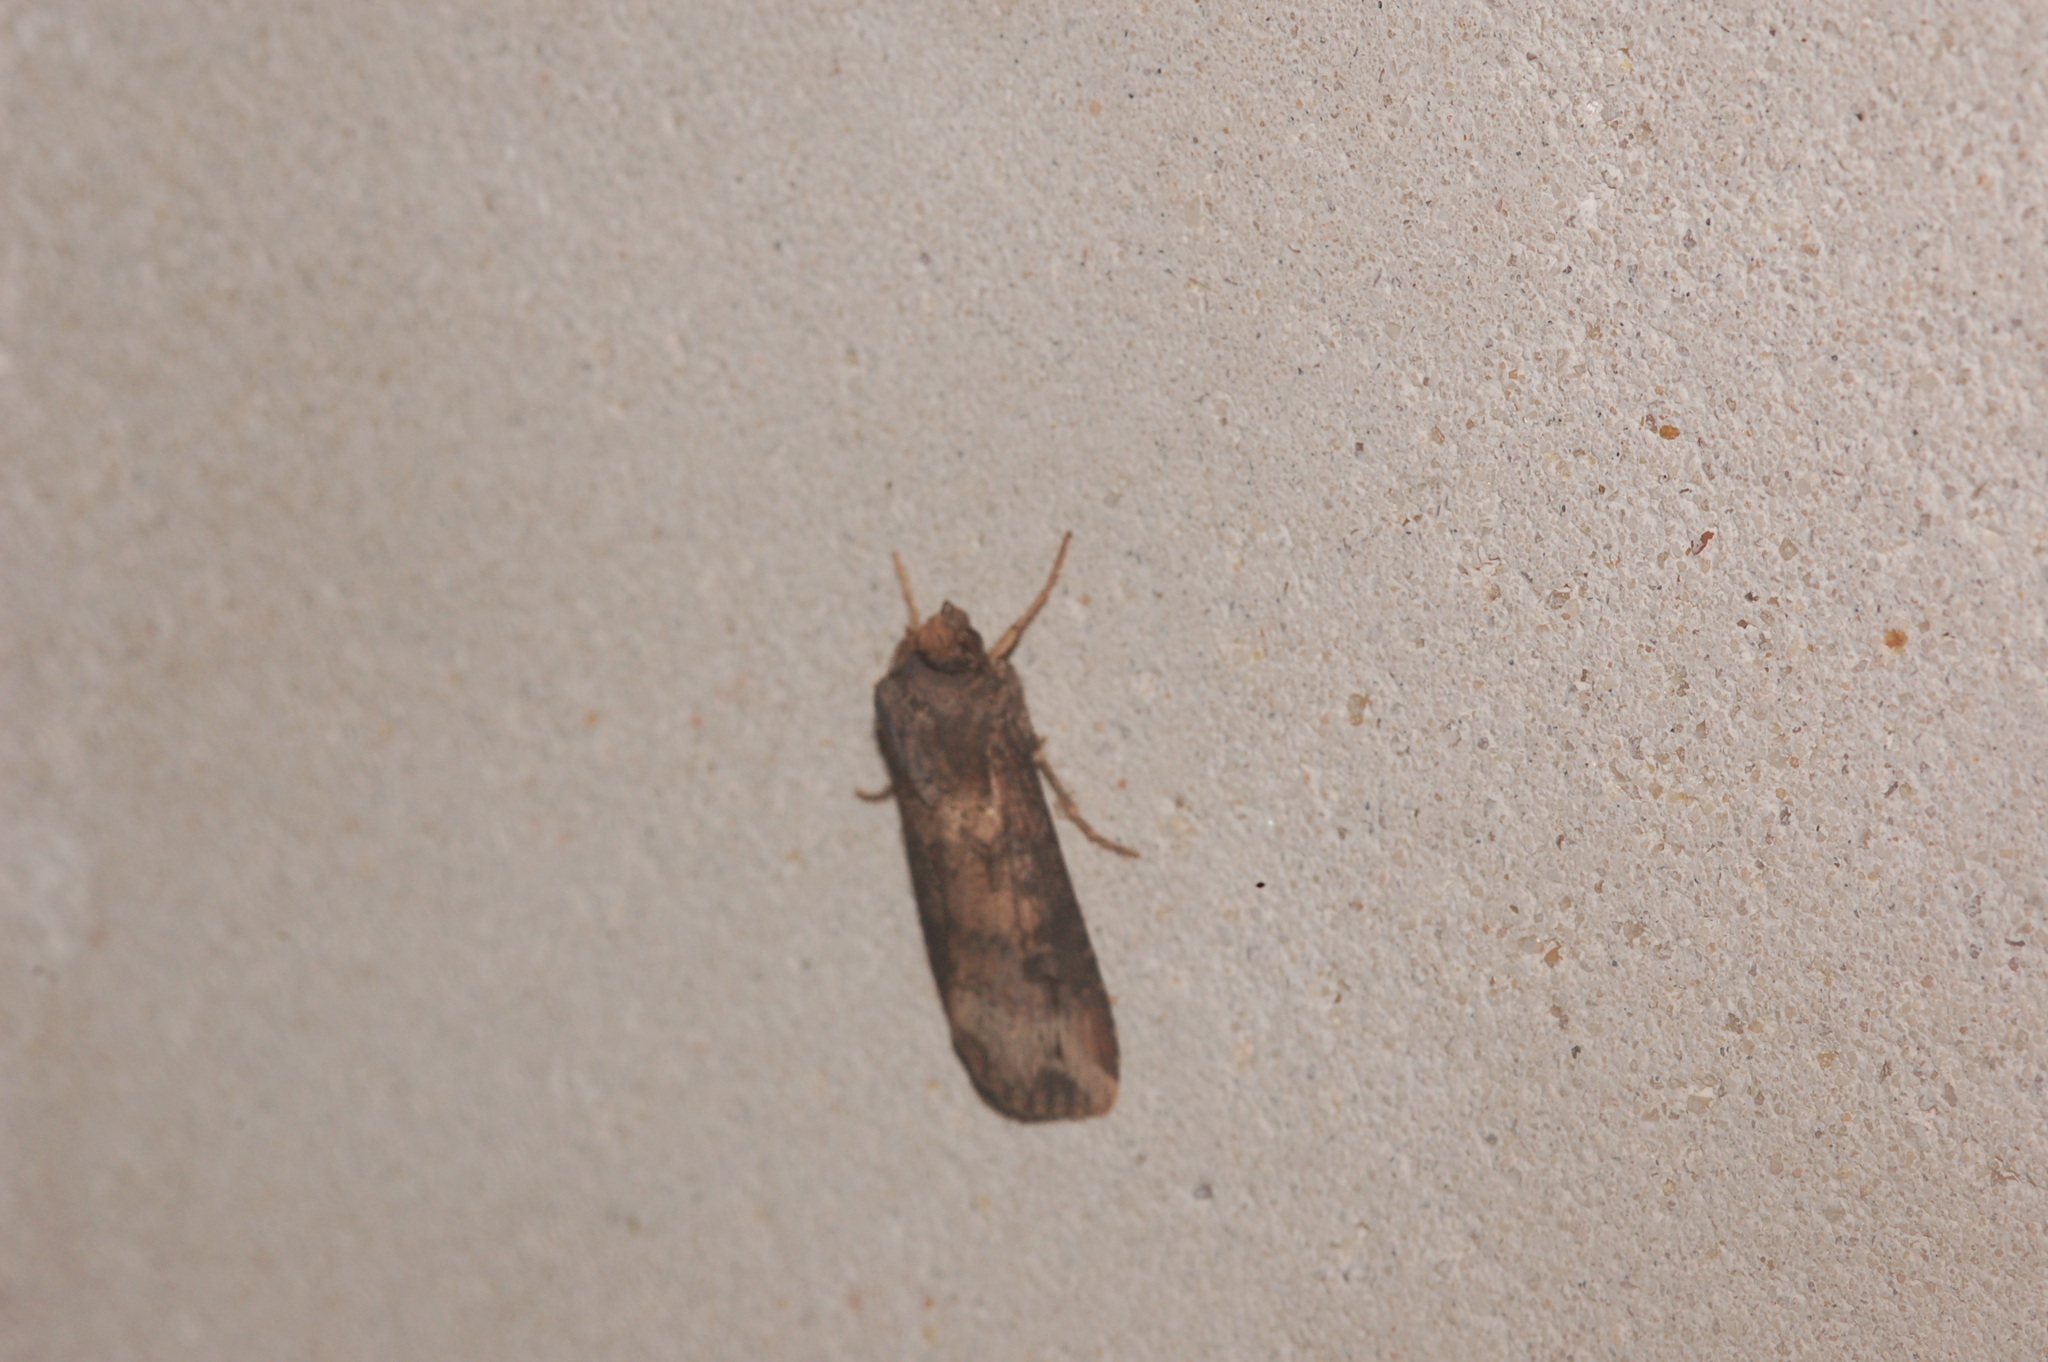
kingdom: Animalia
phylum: Arthropoda
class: Insecta
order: Lepidoptera
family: Noctuidae
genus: Agrotis
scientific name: Agrotis ipsilon
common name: Dark sword-grass
